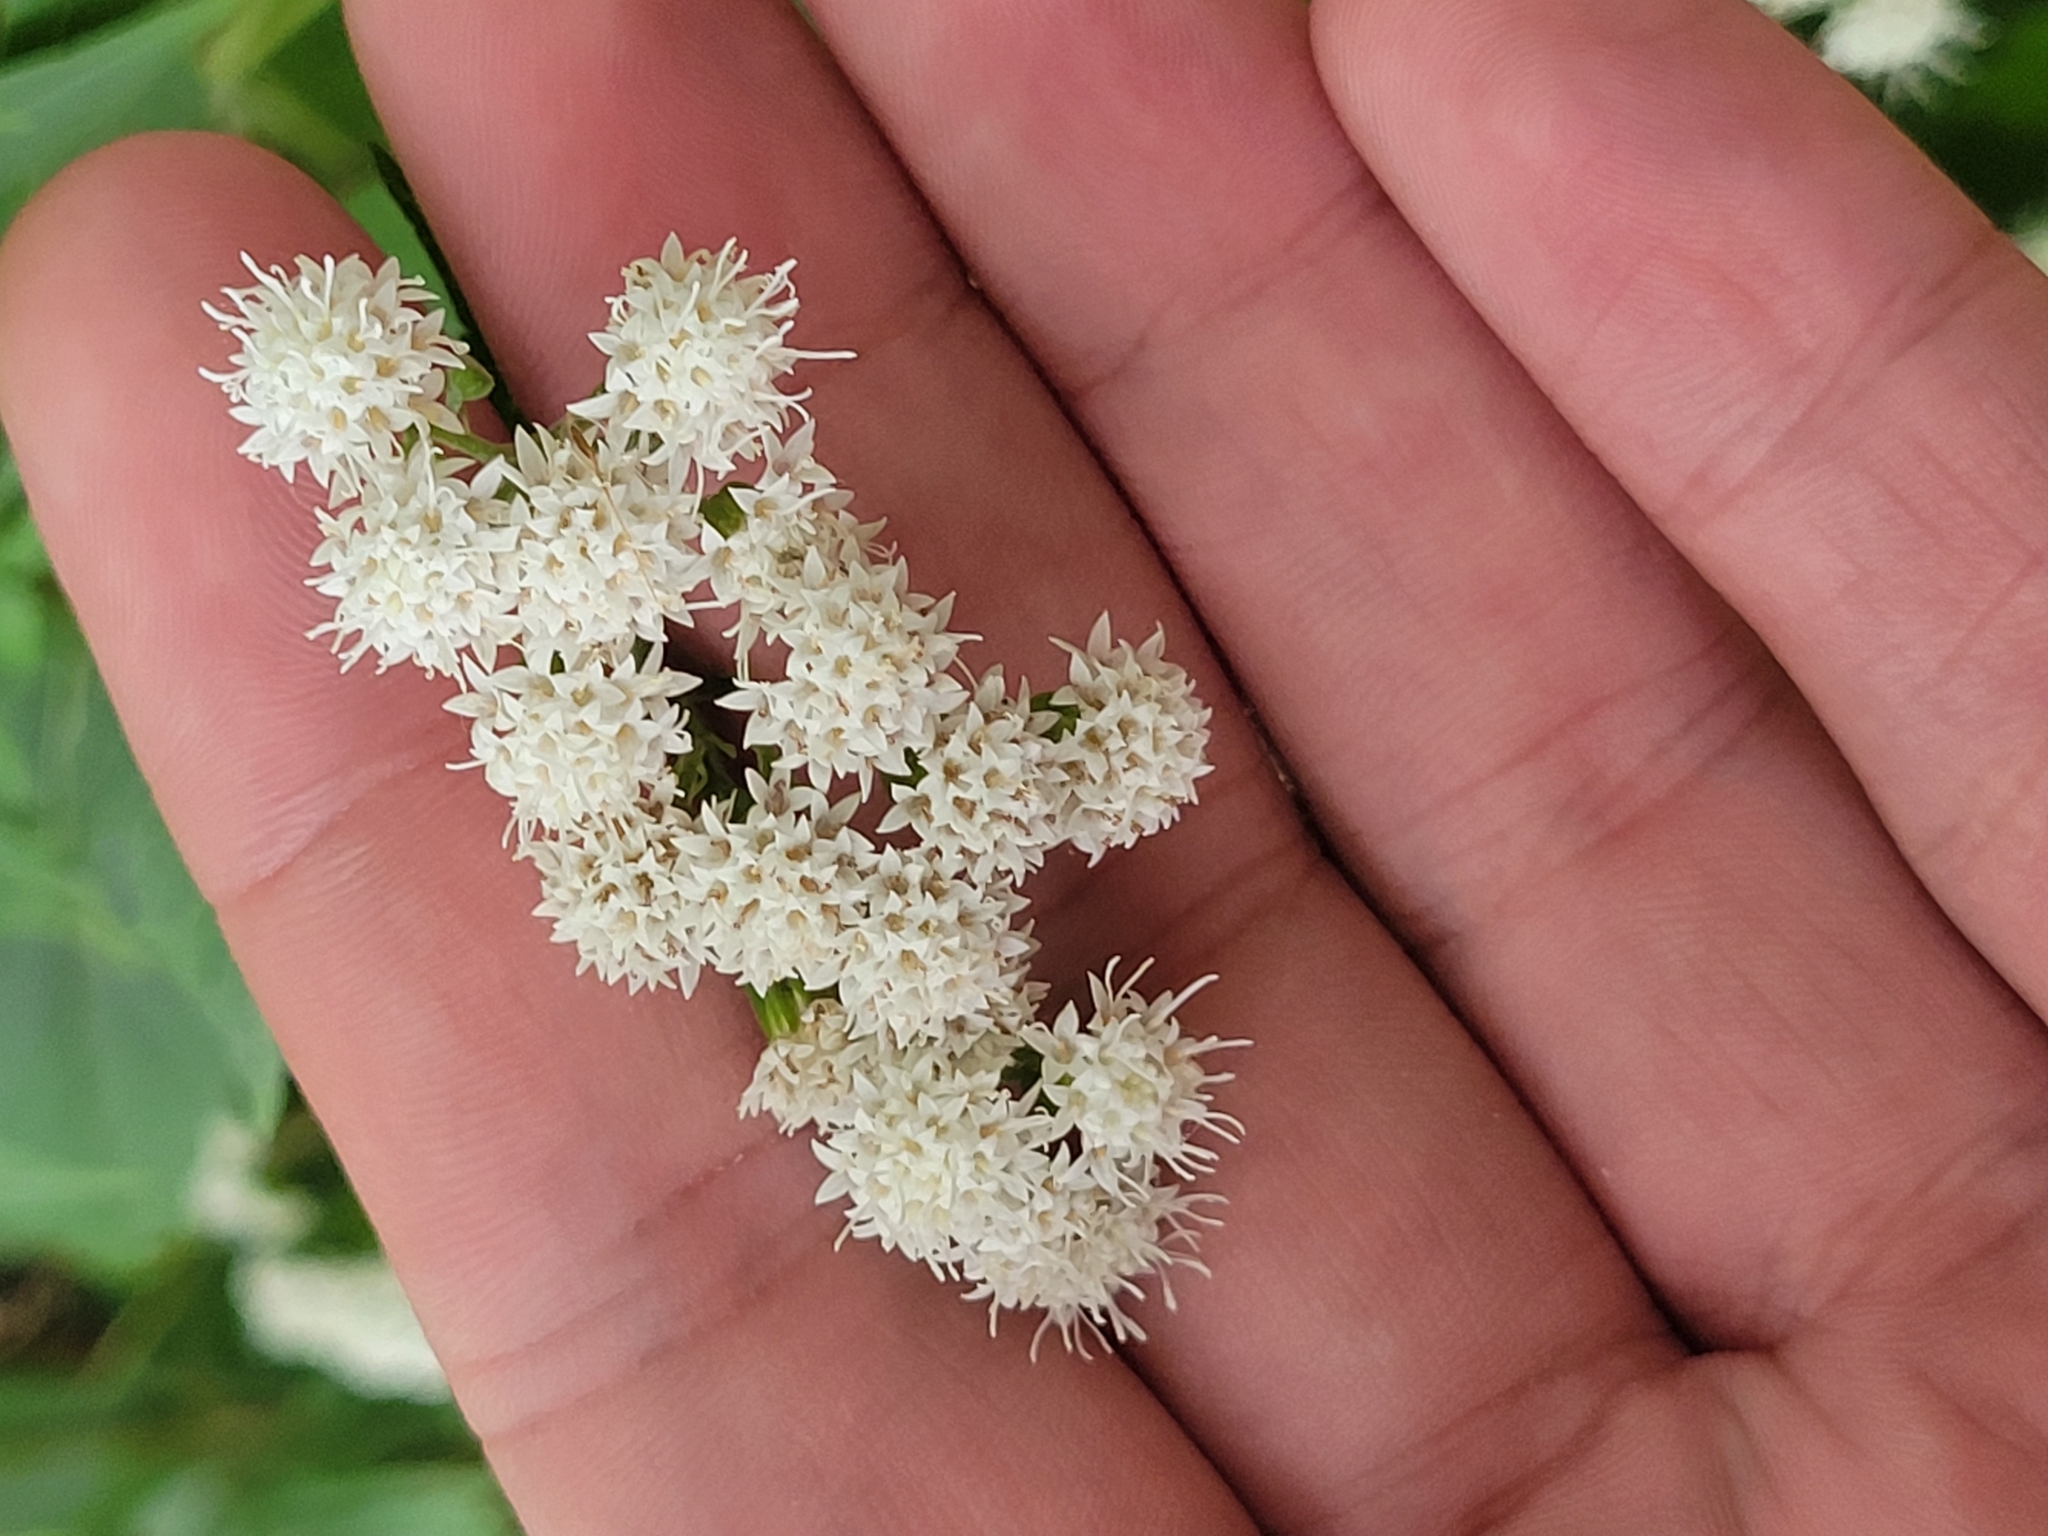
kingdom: Plantae
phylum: Tracheophyta
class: Magnoliopsida
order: Asterales
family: Asteraceae
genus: Ageratina
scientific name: Ageratina altissima
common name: White snakeroot
